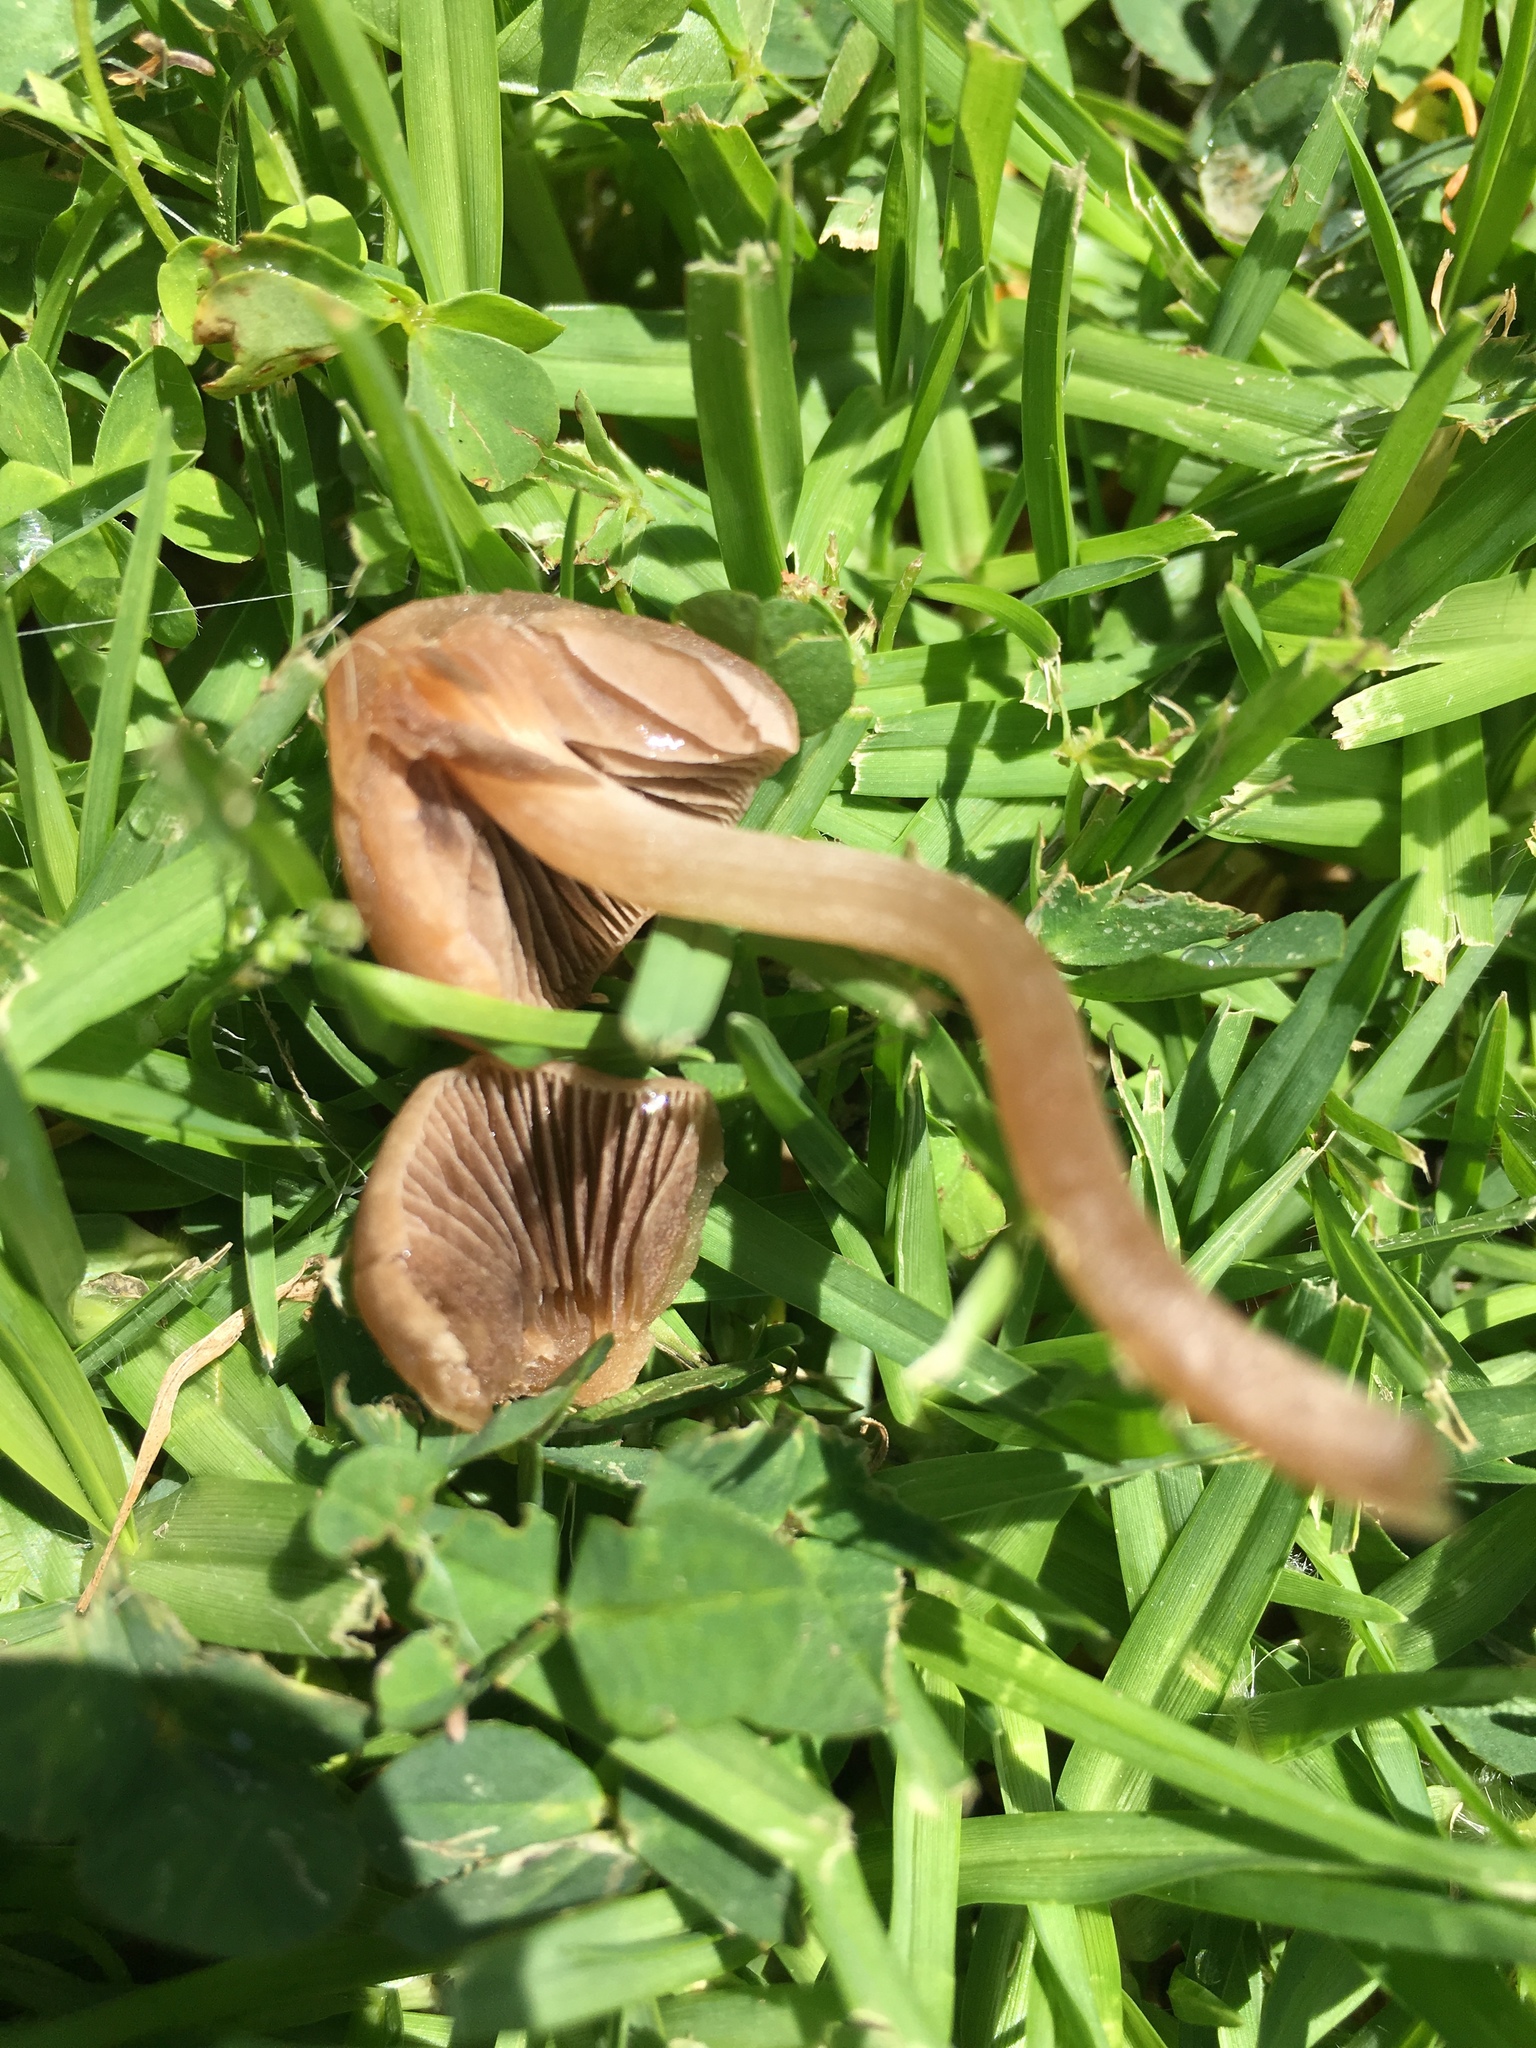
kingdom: Fungi
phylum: Basidiomycota
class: Agaricomycetes
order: Agaricales
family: Bolbitiaceae
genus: Panaeolina
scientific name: Panaeolina foenisecii
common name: Brown hay cap
